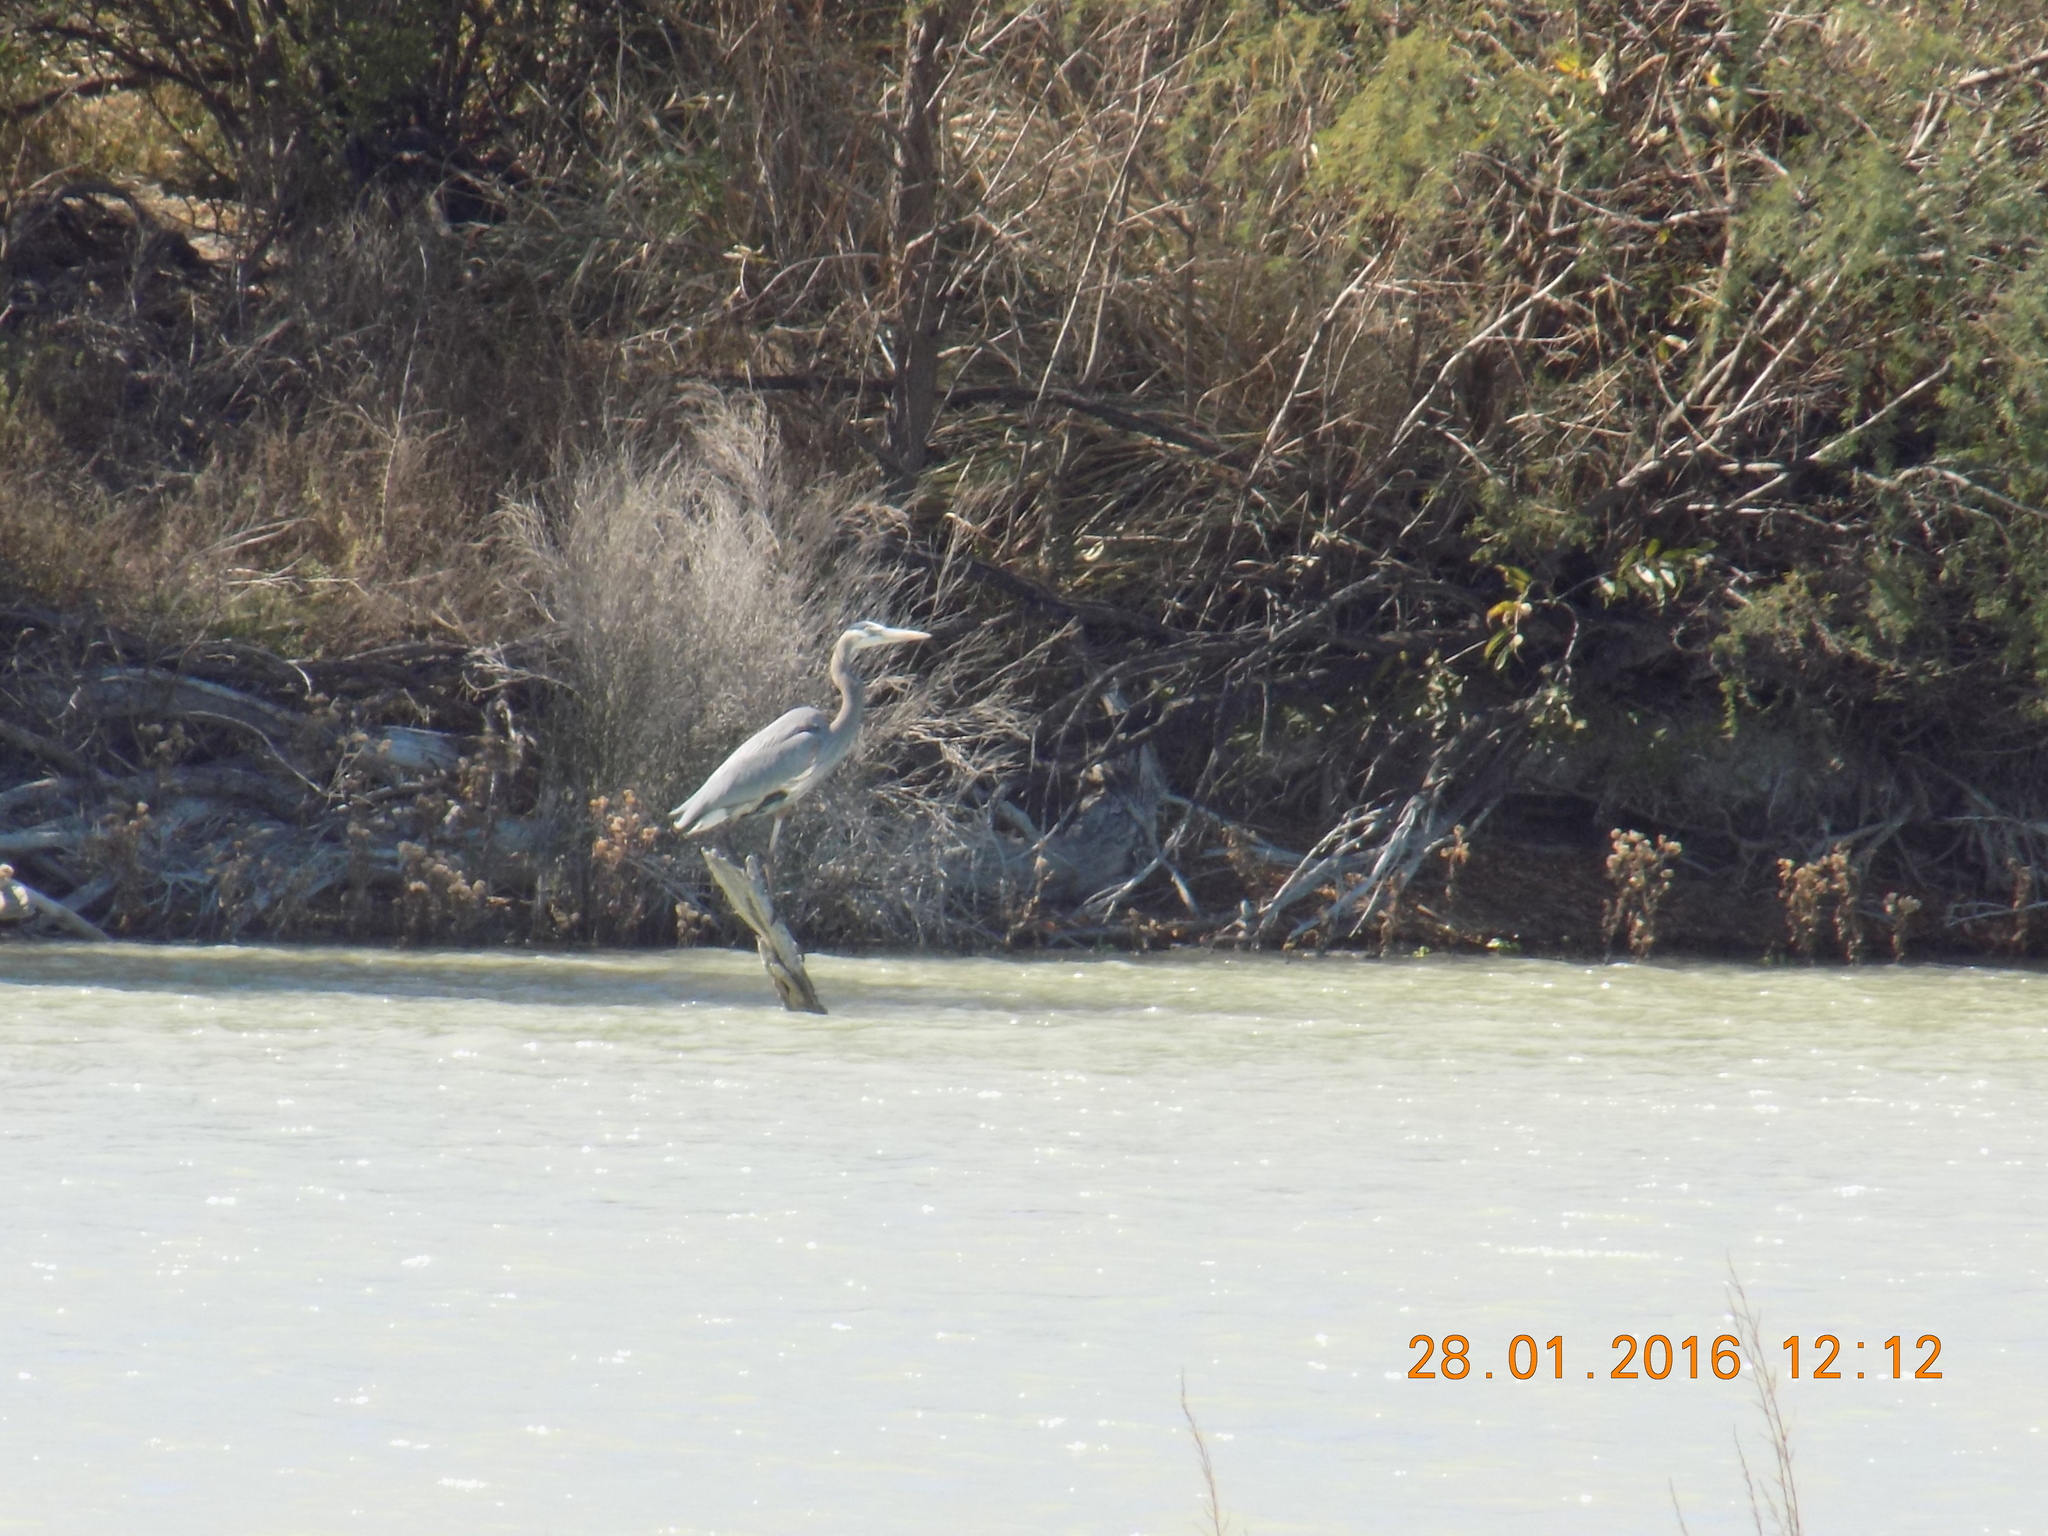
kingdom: Animalia
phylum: Chordata
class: Aves
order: Pelecaniformes
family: Ardeidae
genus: Ardea
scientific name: Ardea herodias
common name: Great blue heron
